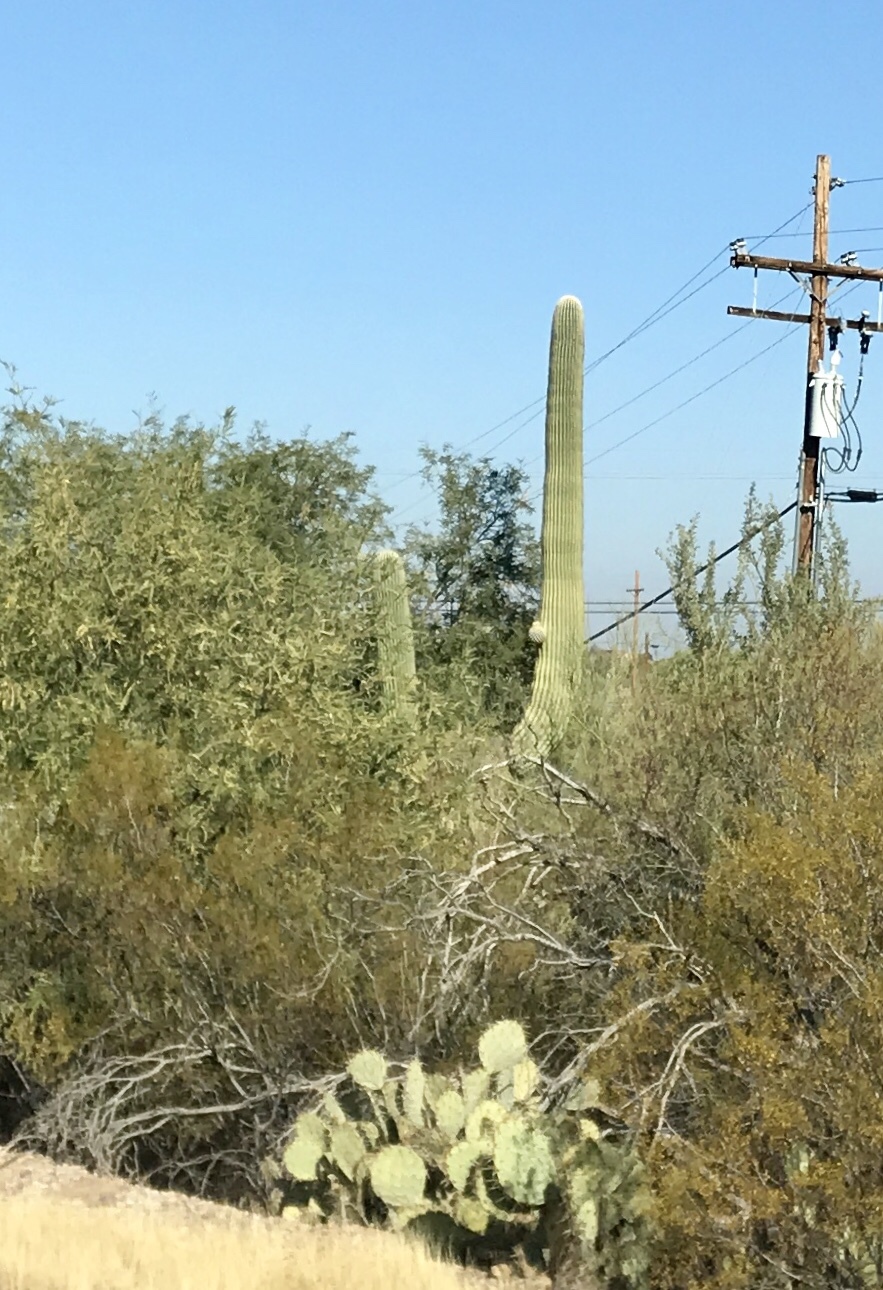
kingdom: Plantae
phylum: Tracheophyta
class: Magnoliopsida
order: Caryophyllales
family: Cactaceae
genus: Carnegiea
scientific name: Carnegiea gigantea
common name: Saguaro
